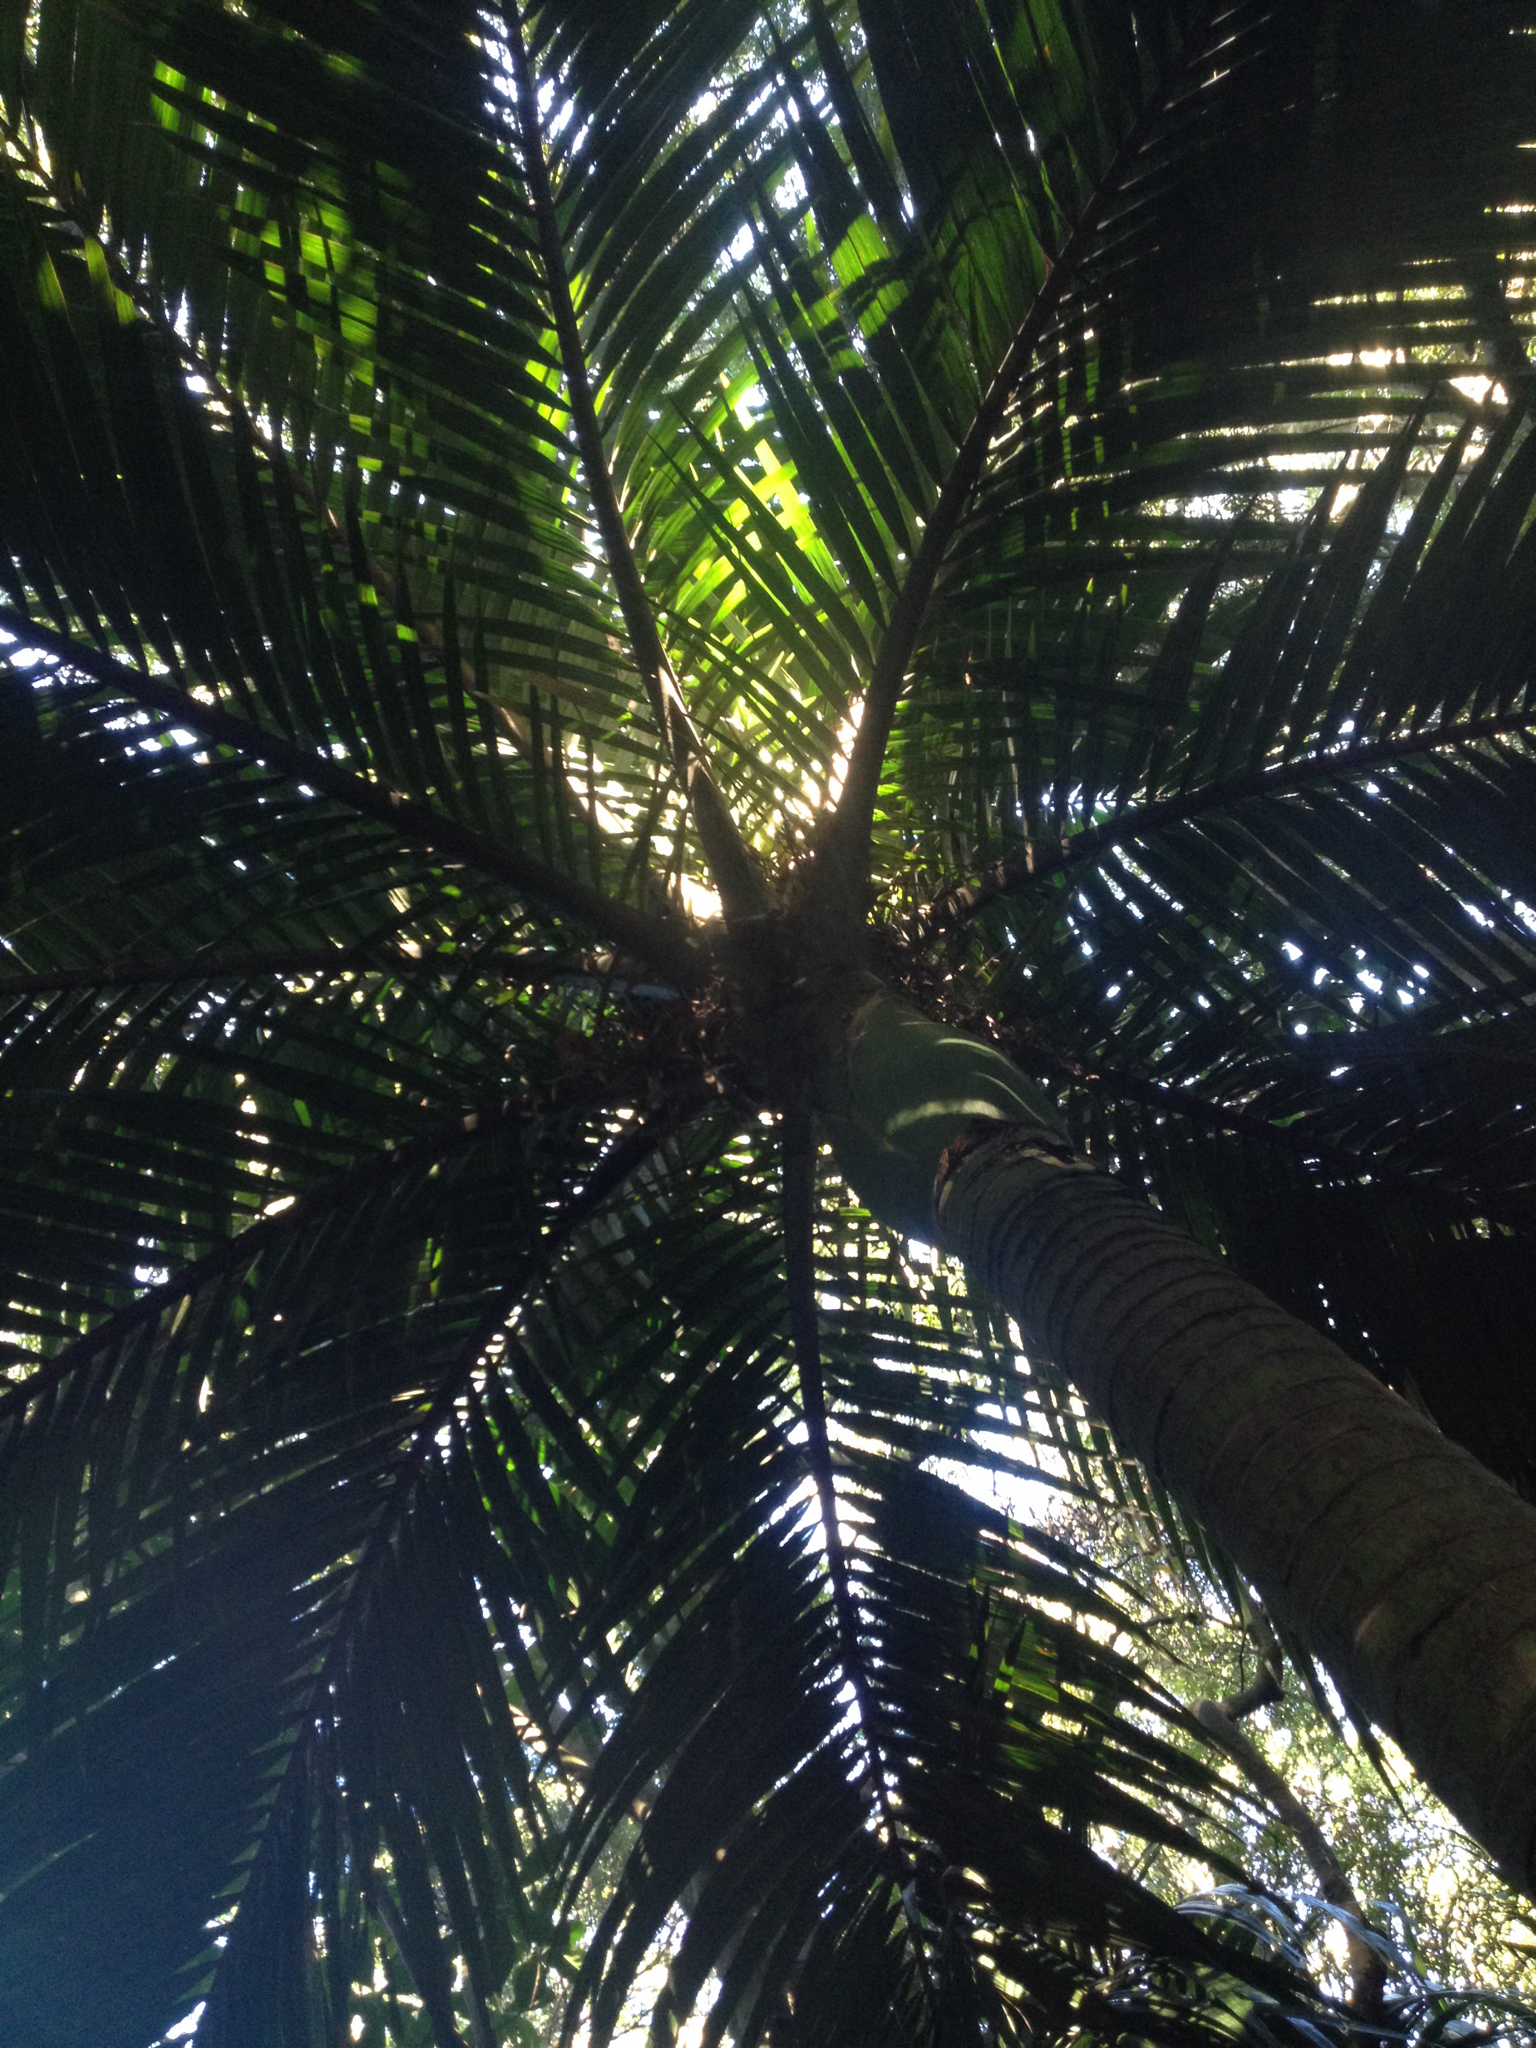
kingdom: Plantae
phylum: Tracheophyta
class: Liliopsida
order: Arecales
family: Arecaceae
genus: Rhopalostylis
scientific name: Rhopalostylis sapida
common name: Feather-duster palm
